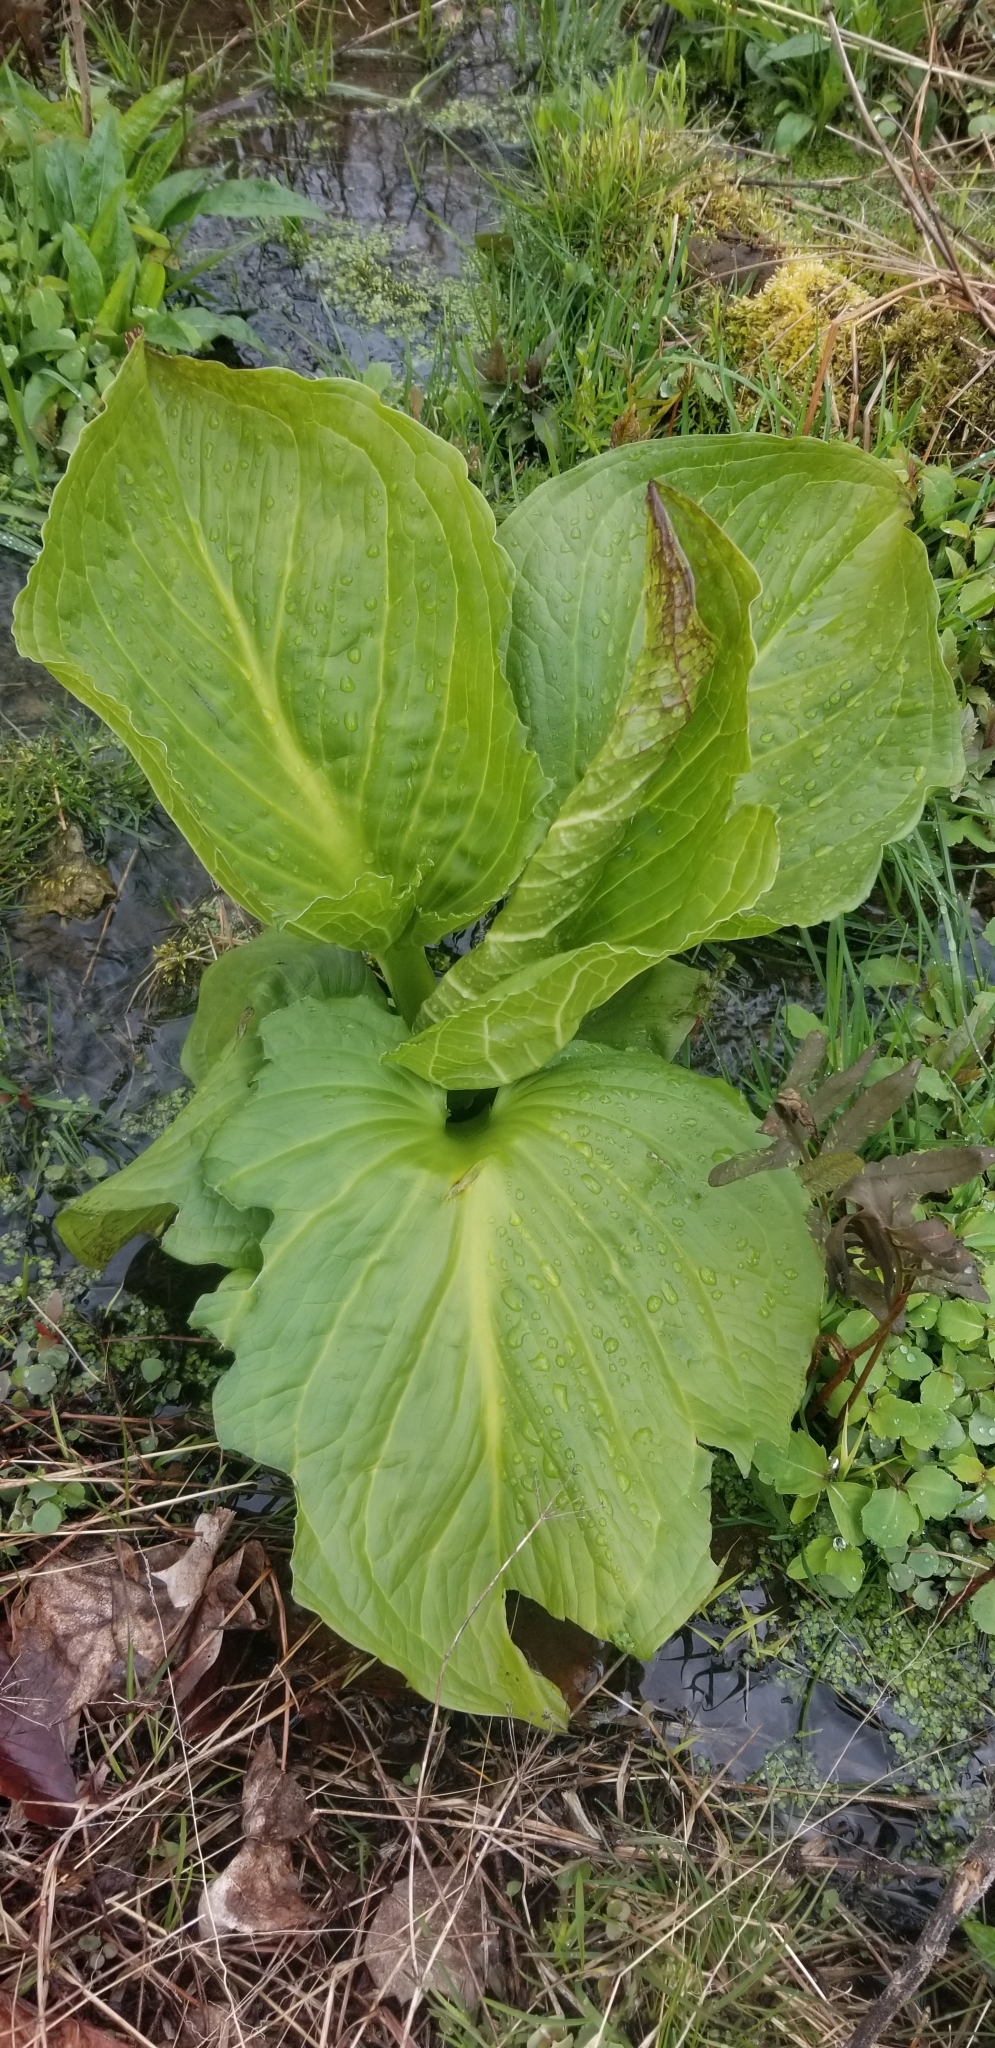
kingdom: Plantae
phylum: Tracheophyta
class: Liliopsida
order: Alismatales
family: Araceae
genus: Symplocarpus
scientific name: Symplocarpus foetidus
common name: Eastern skunk cabbage
